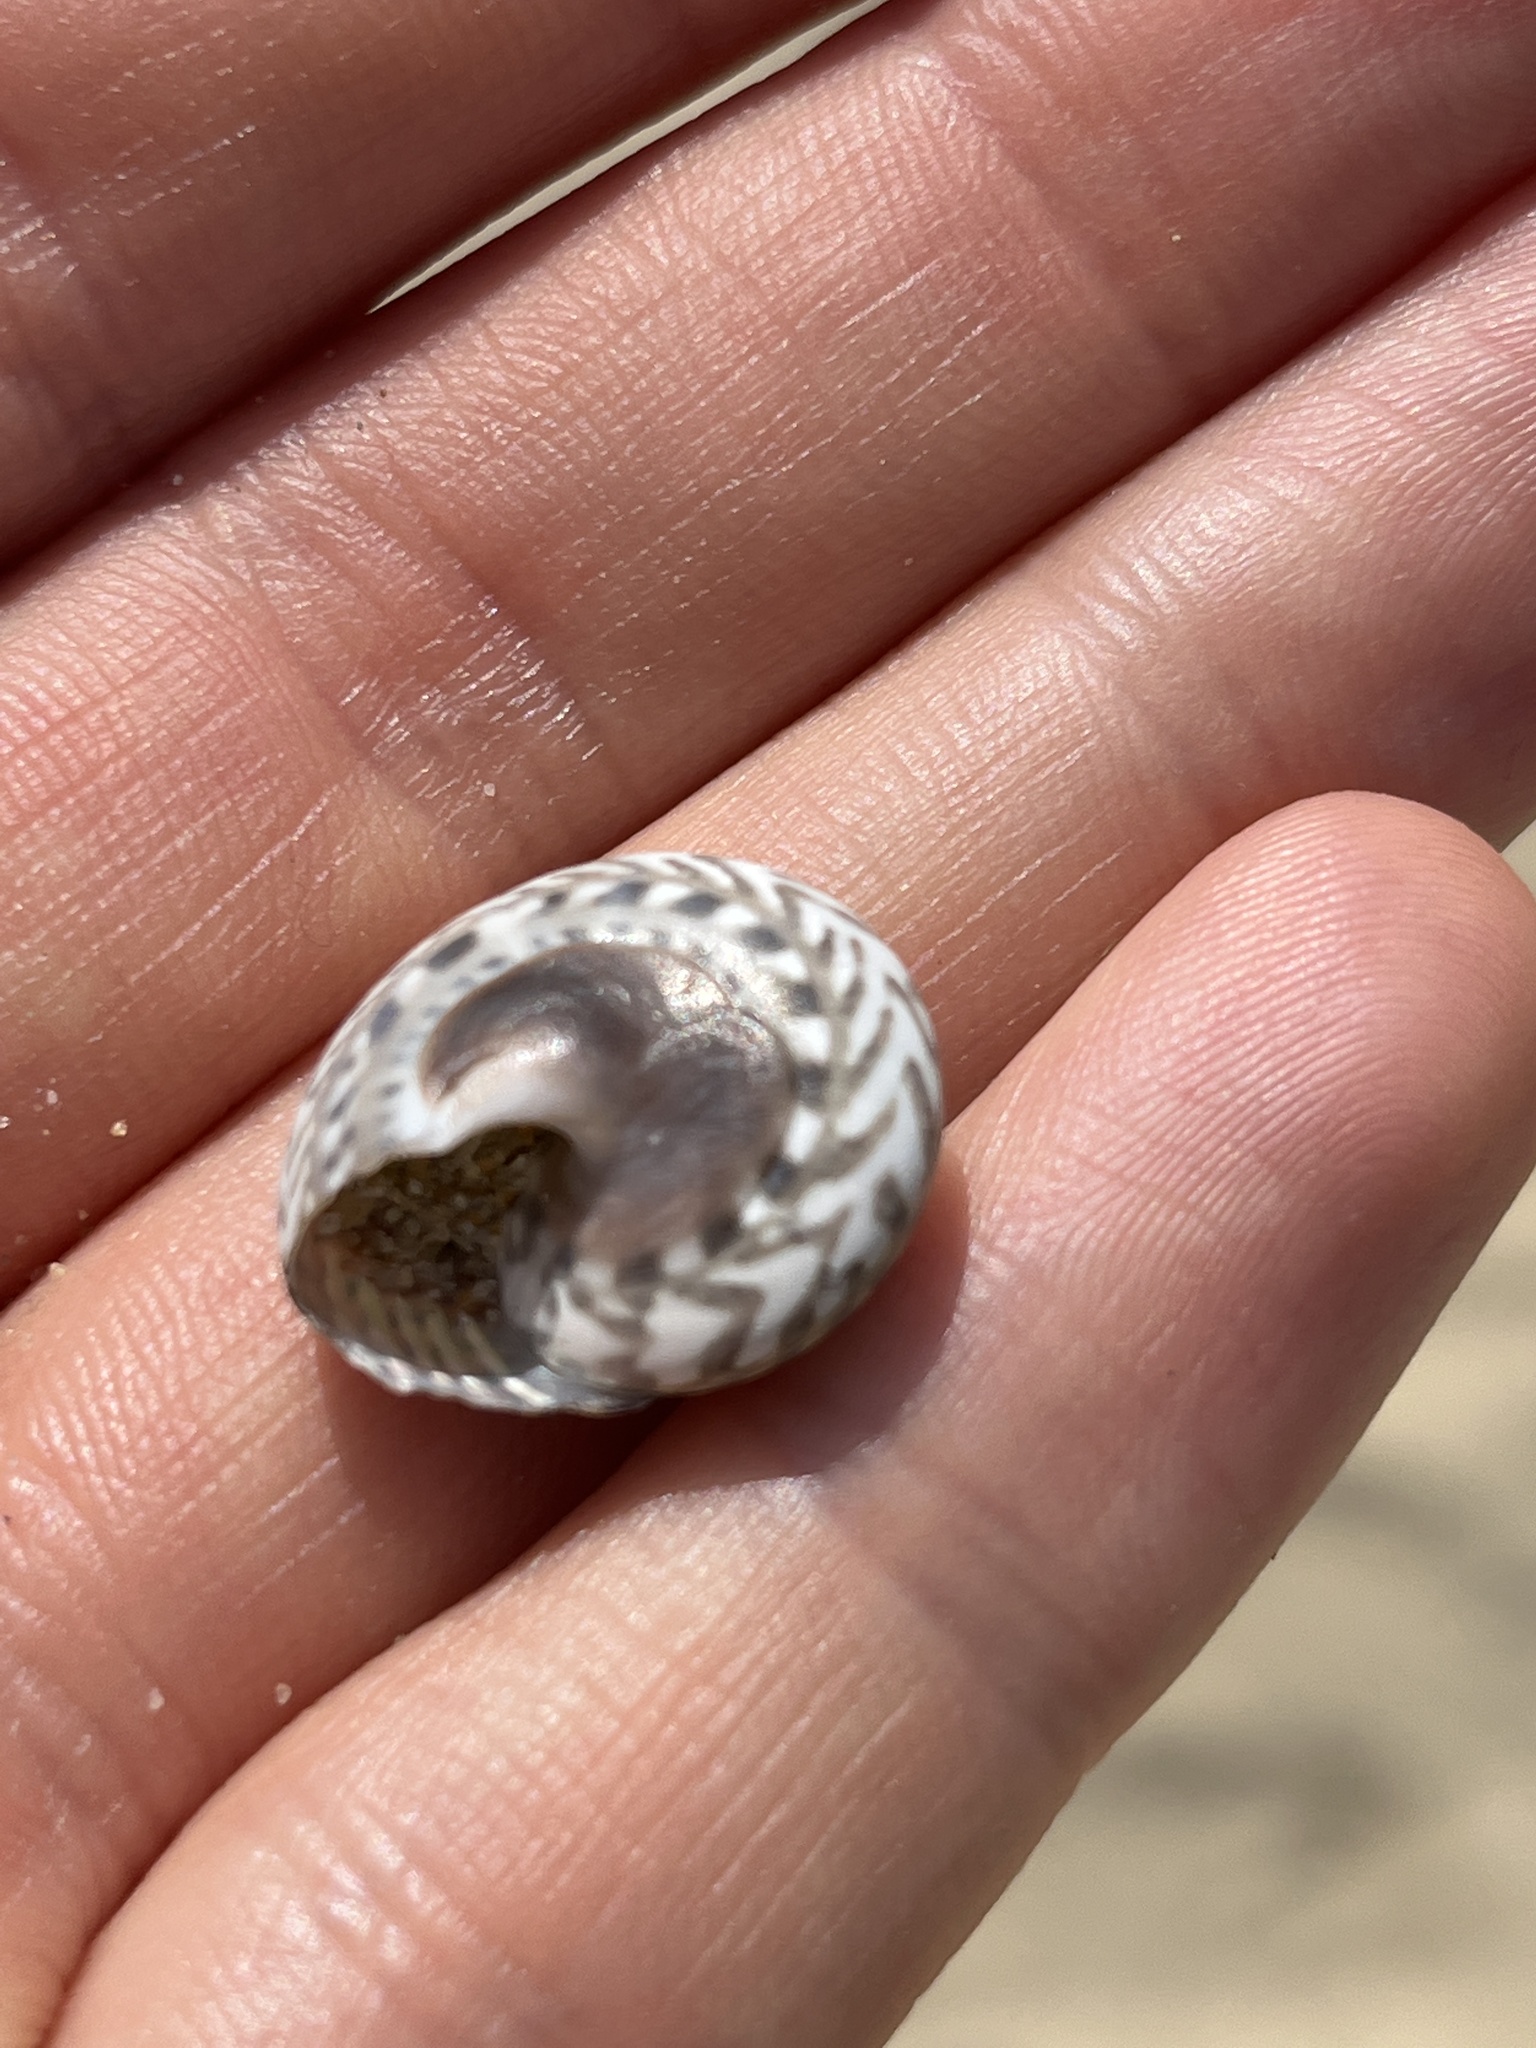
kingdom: Animalia
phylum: Mollusca
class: Gastropoda
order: Trochida
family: Trochidae
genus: Umbonium
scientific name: Umbonium costatum
